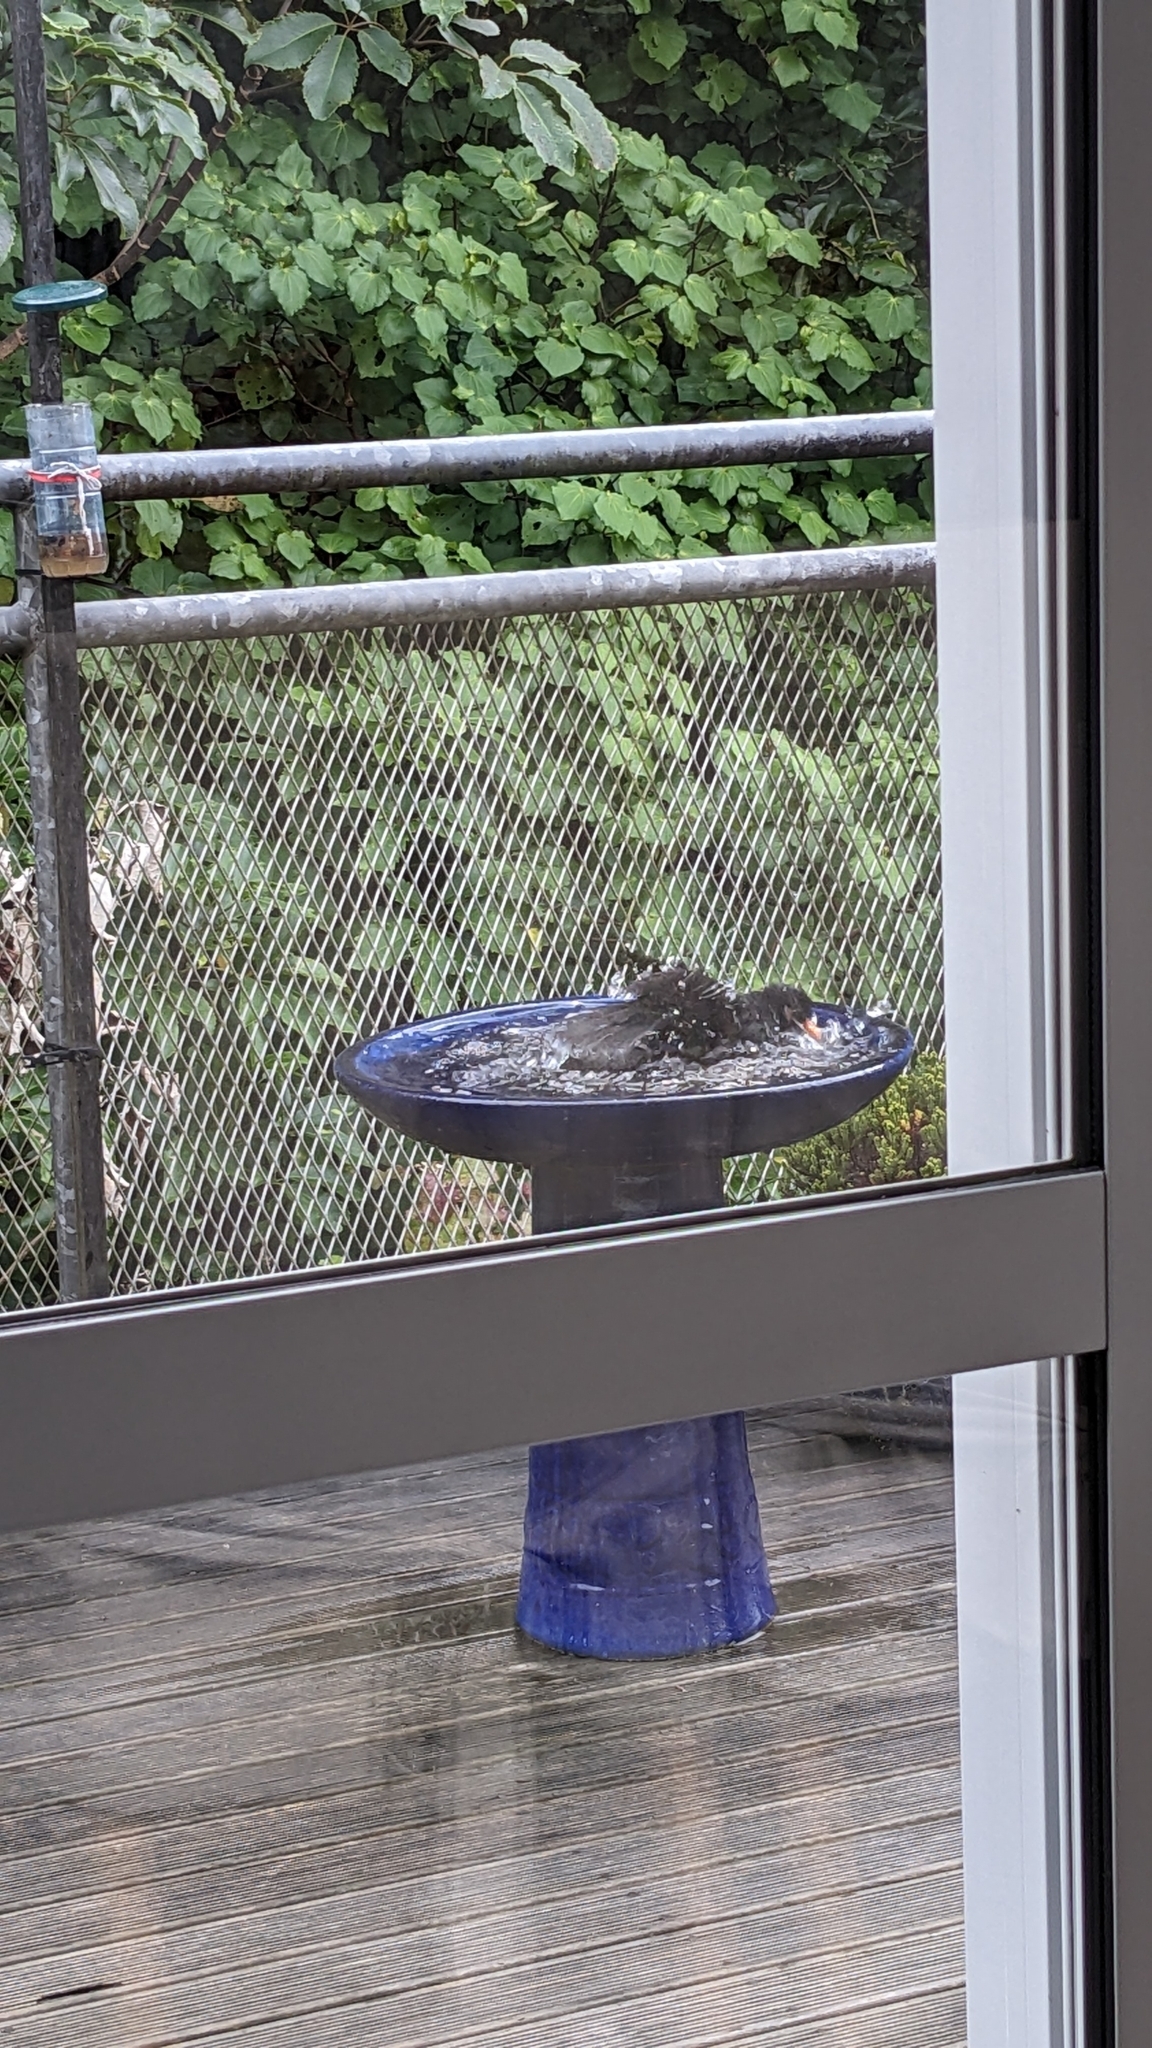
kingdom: Animalia
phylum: Chordata
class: Aves
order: Passeriformes
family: Turdidae
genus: Turdus
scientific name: Turdus merula
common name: Common blackbird
